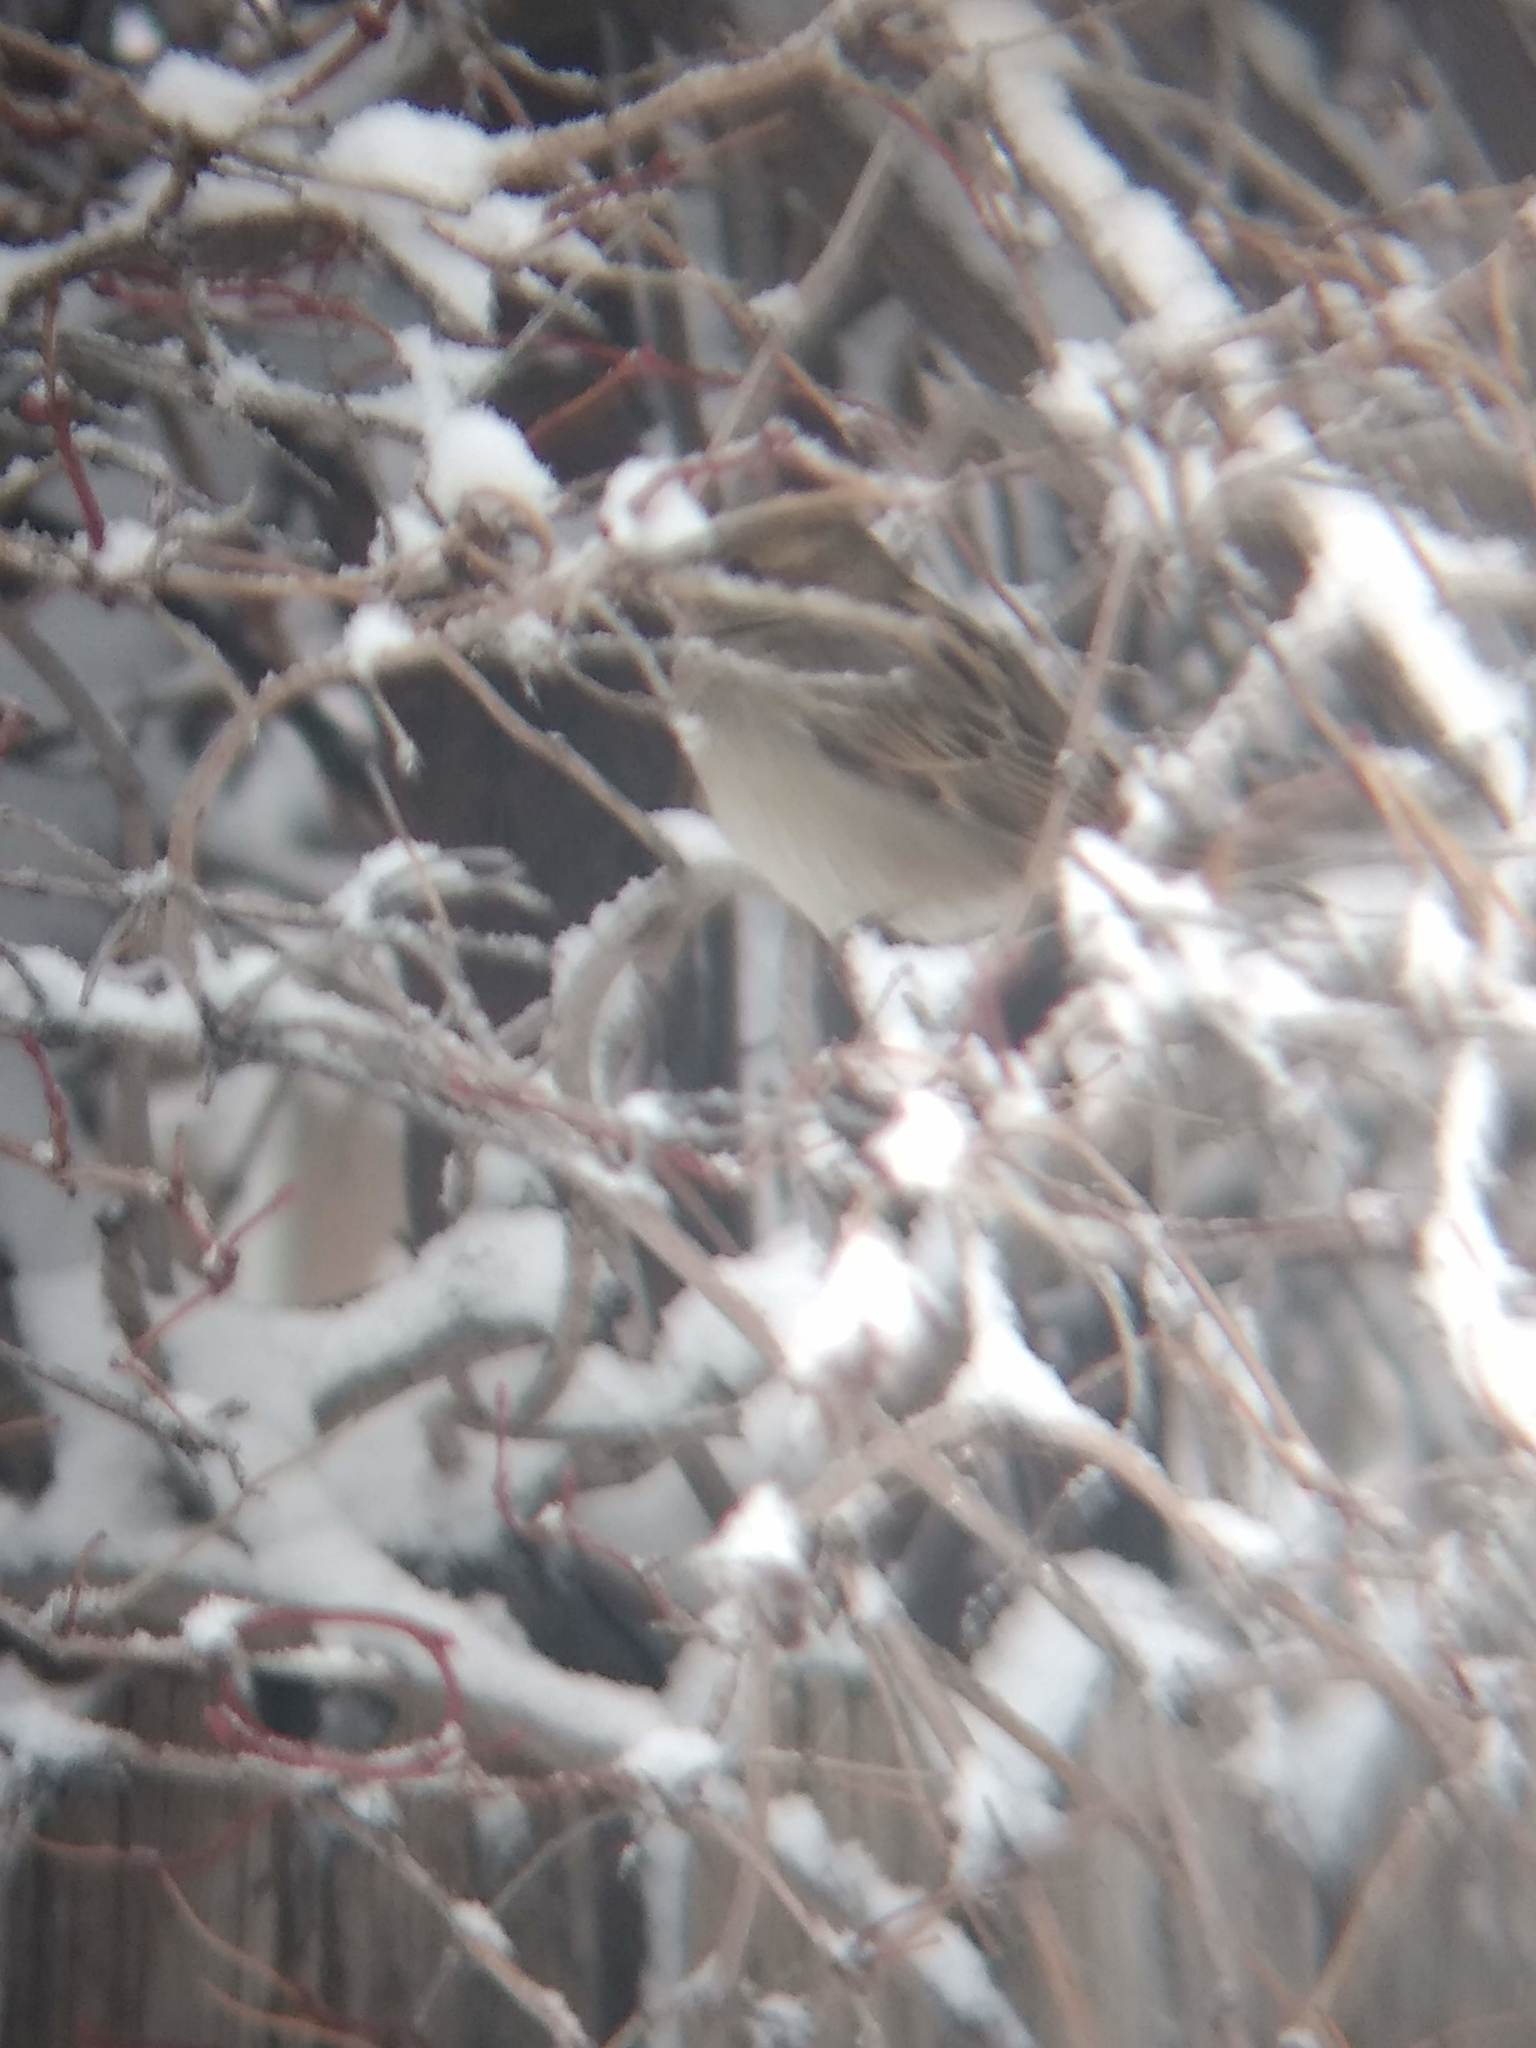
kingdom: Animalia
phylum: Chordata
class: Aves
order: Passeriformes
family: Passeridae
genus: Passer
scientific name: Passer domesticus
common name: House sparrow
